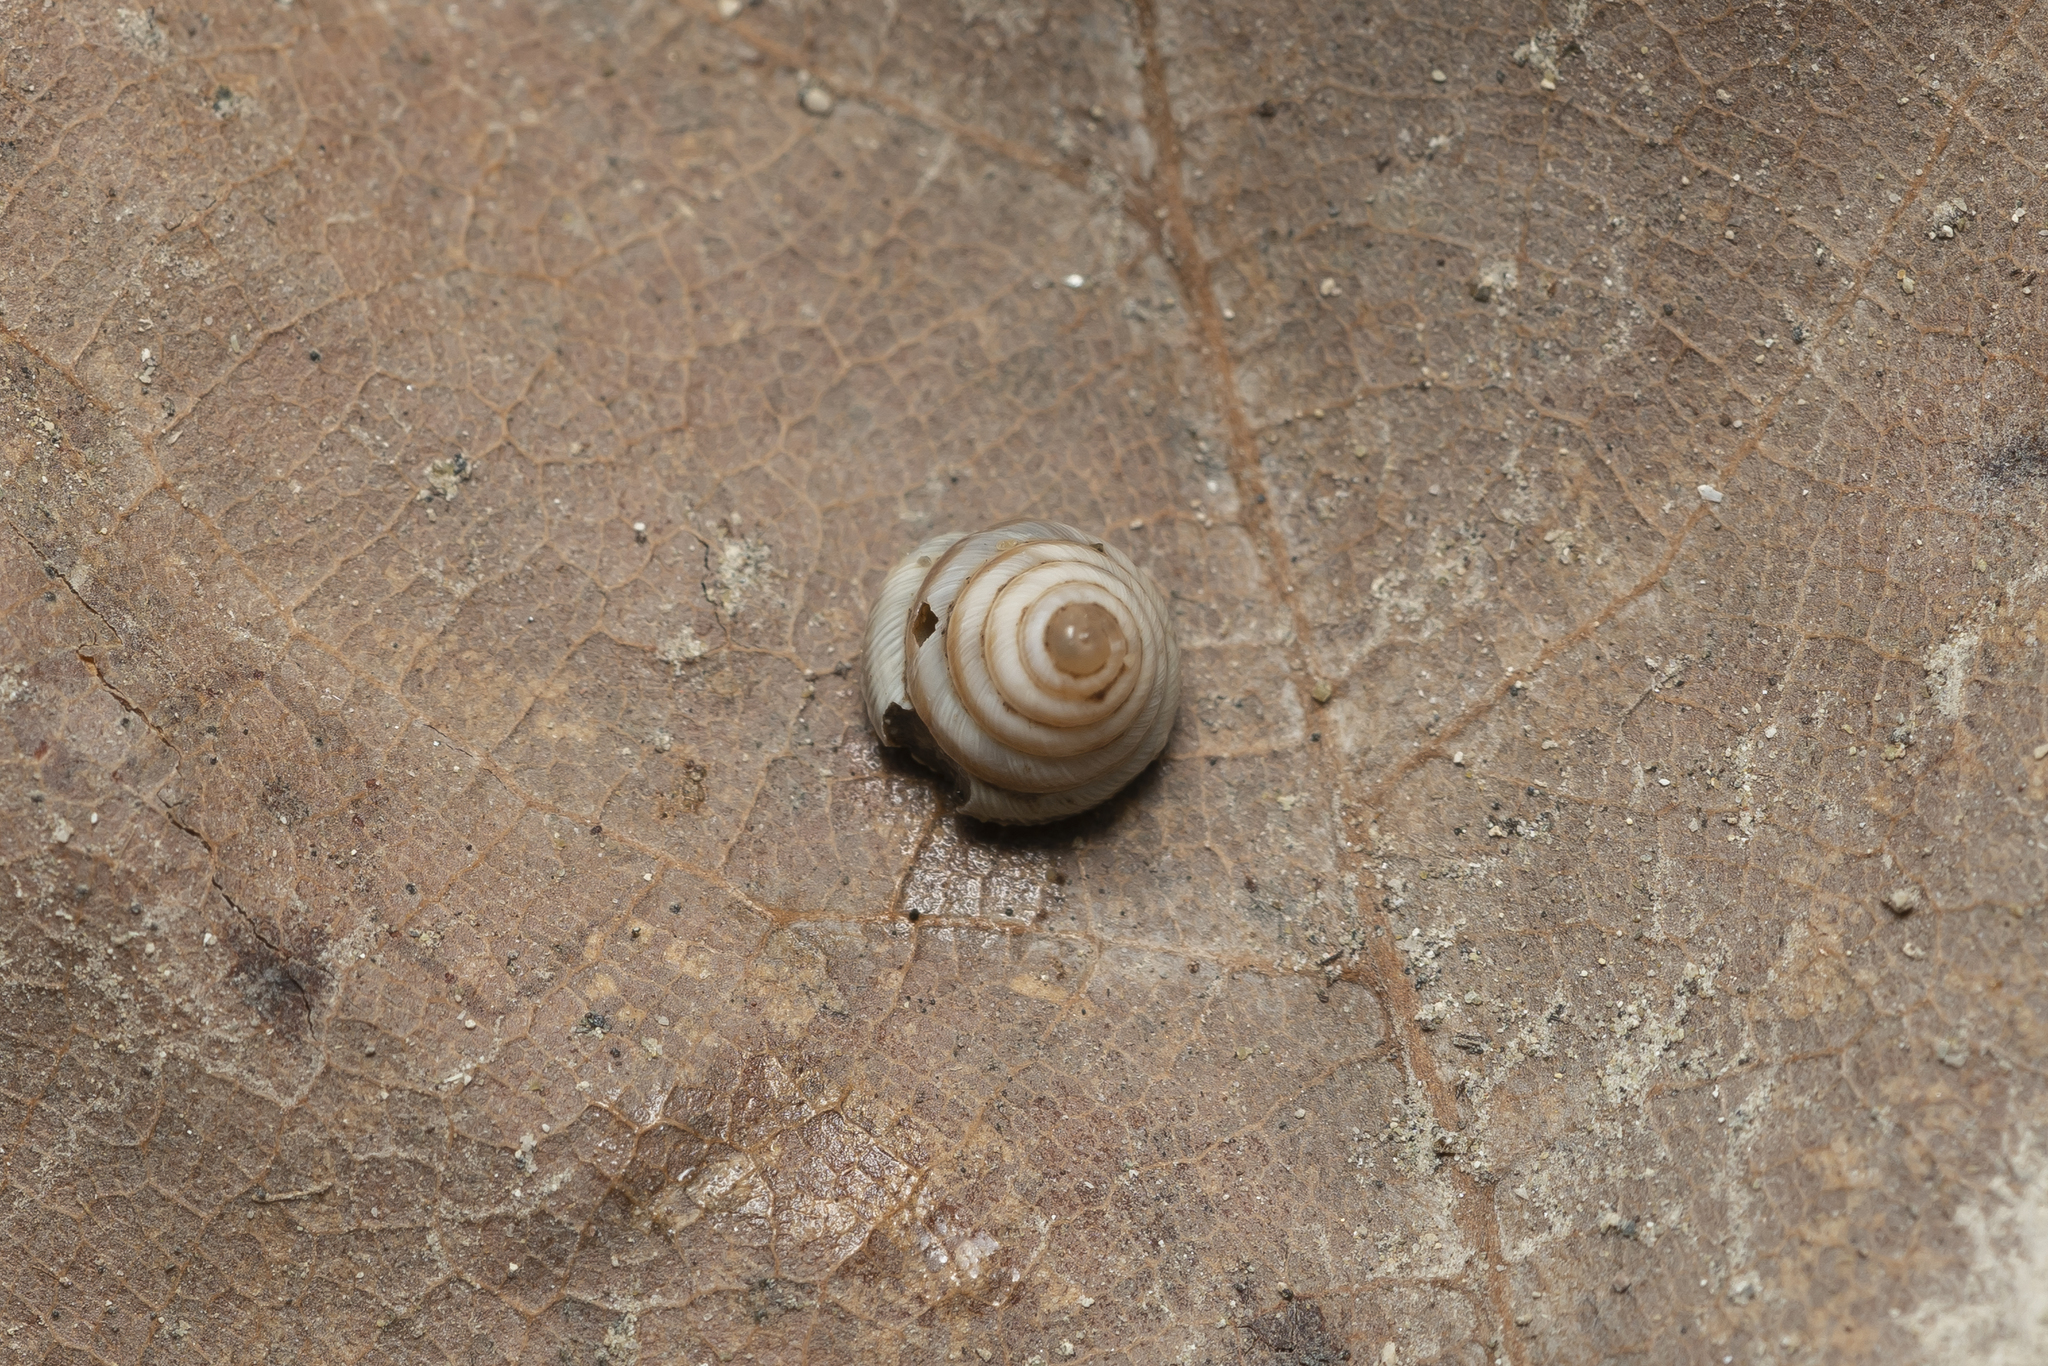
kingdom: Animalia
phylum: Mollusca
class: Gastropoda
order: Stylommatophora
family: Geomitridae
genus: Trochoidea
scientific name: Trochoidea trochoides
